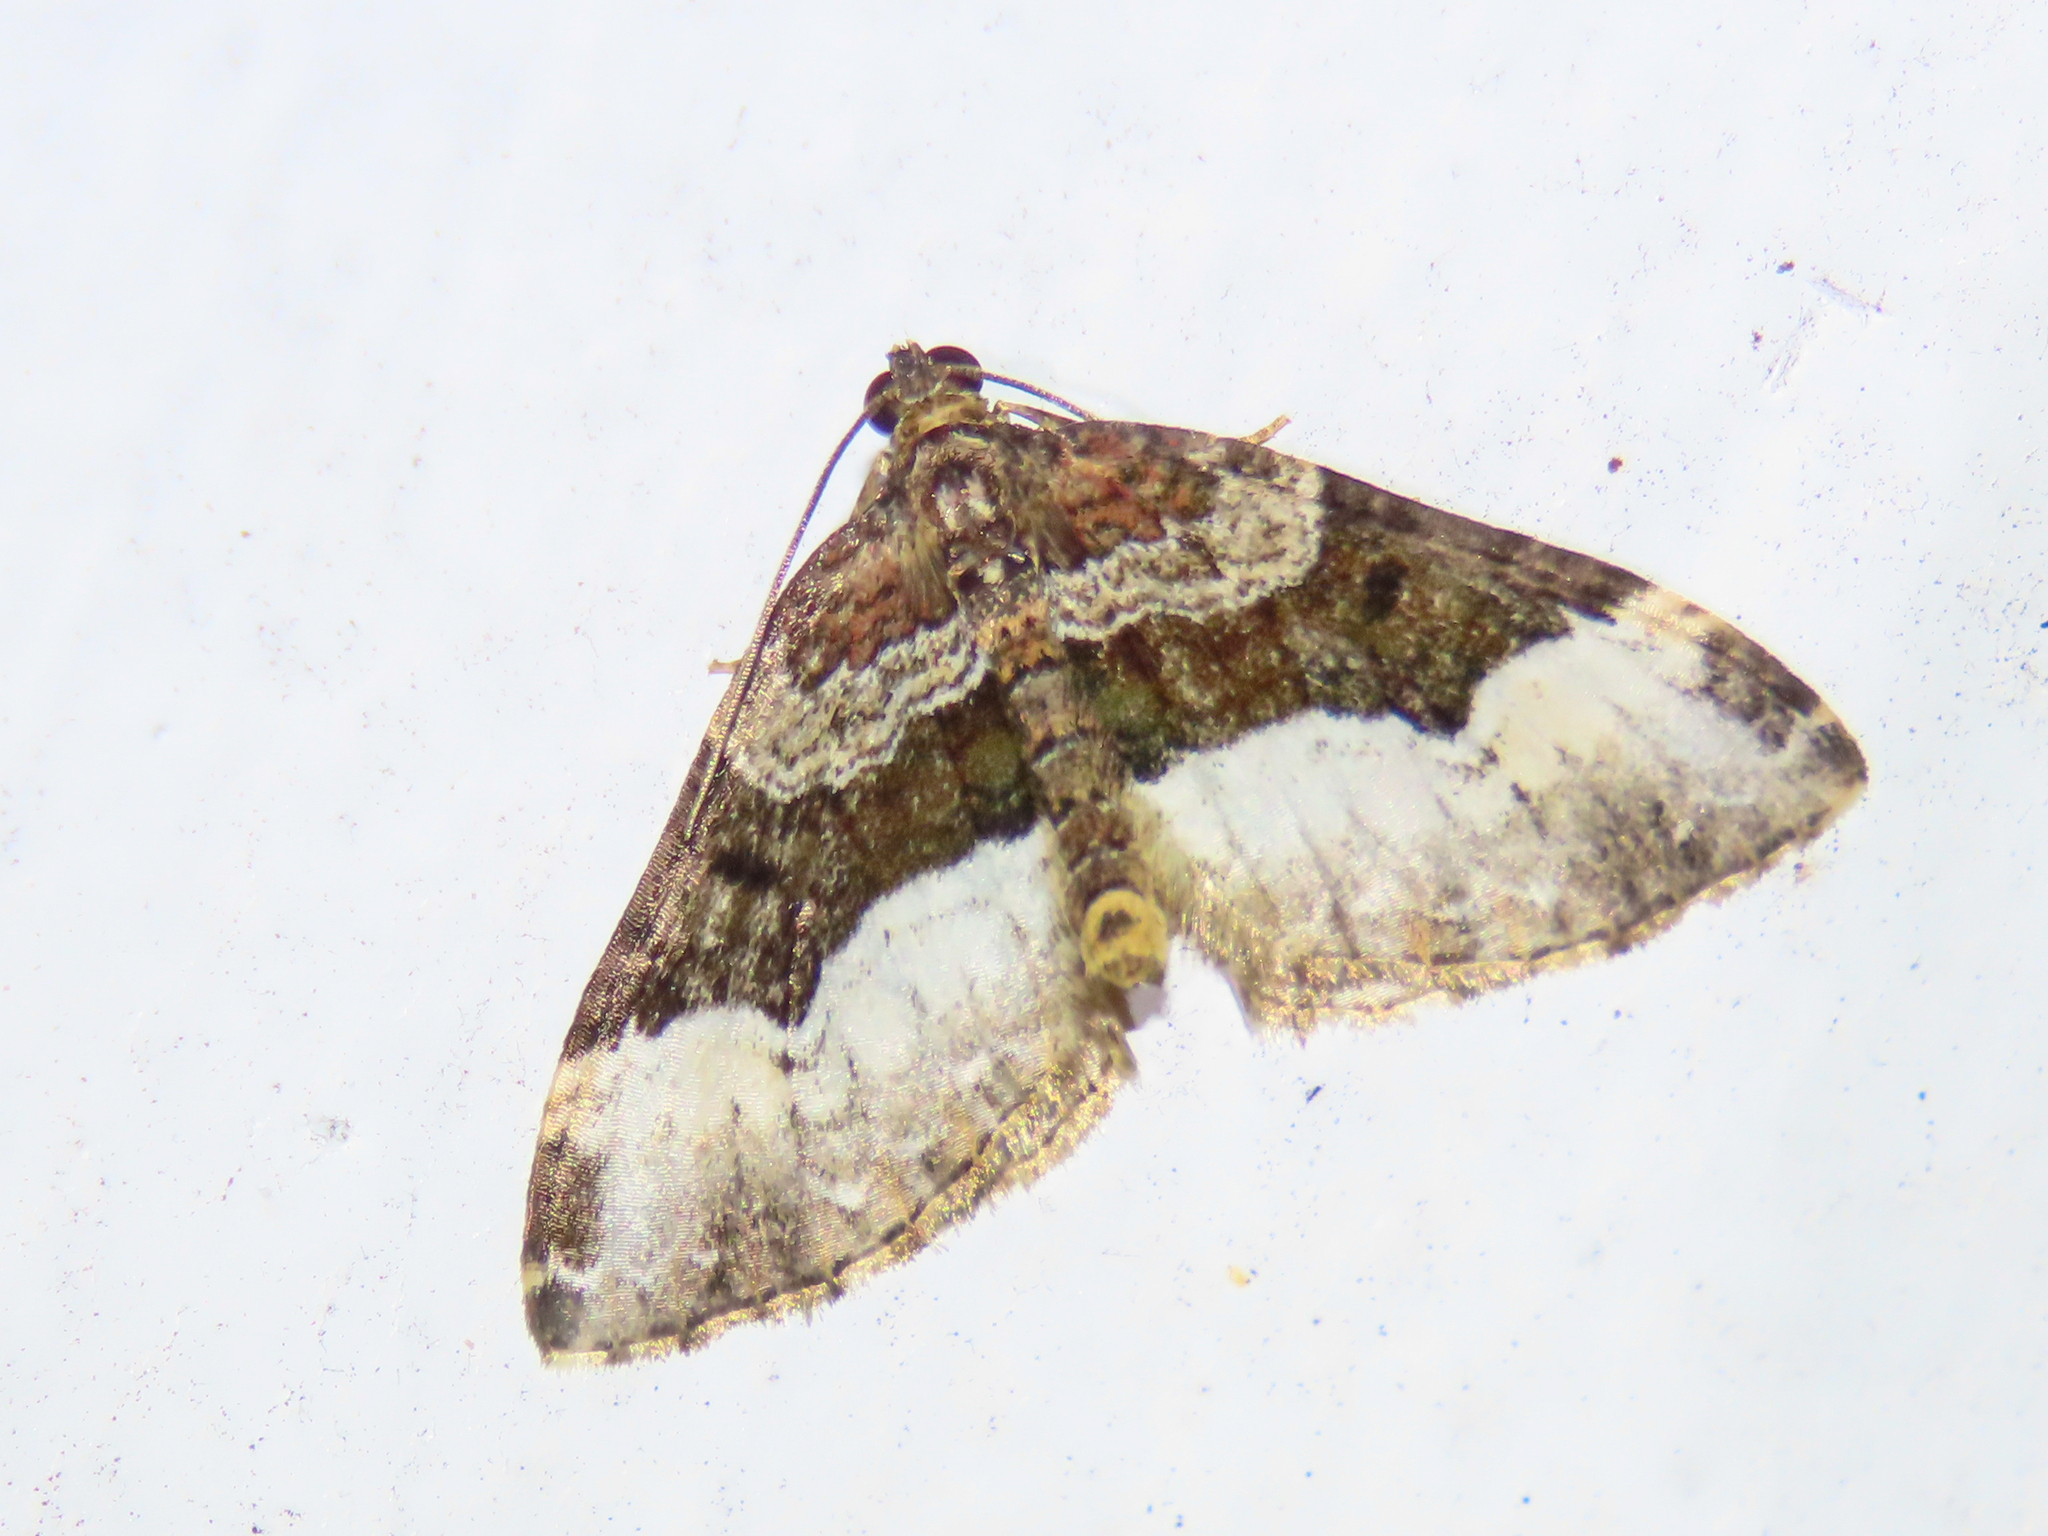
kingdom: Animalia
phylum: Arthropoda
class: Insecta
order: Lepidoptera
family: Geometridae
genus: Euphyia
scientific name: Euphyia intermediata
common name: Sharp-angled carpet
